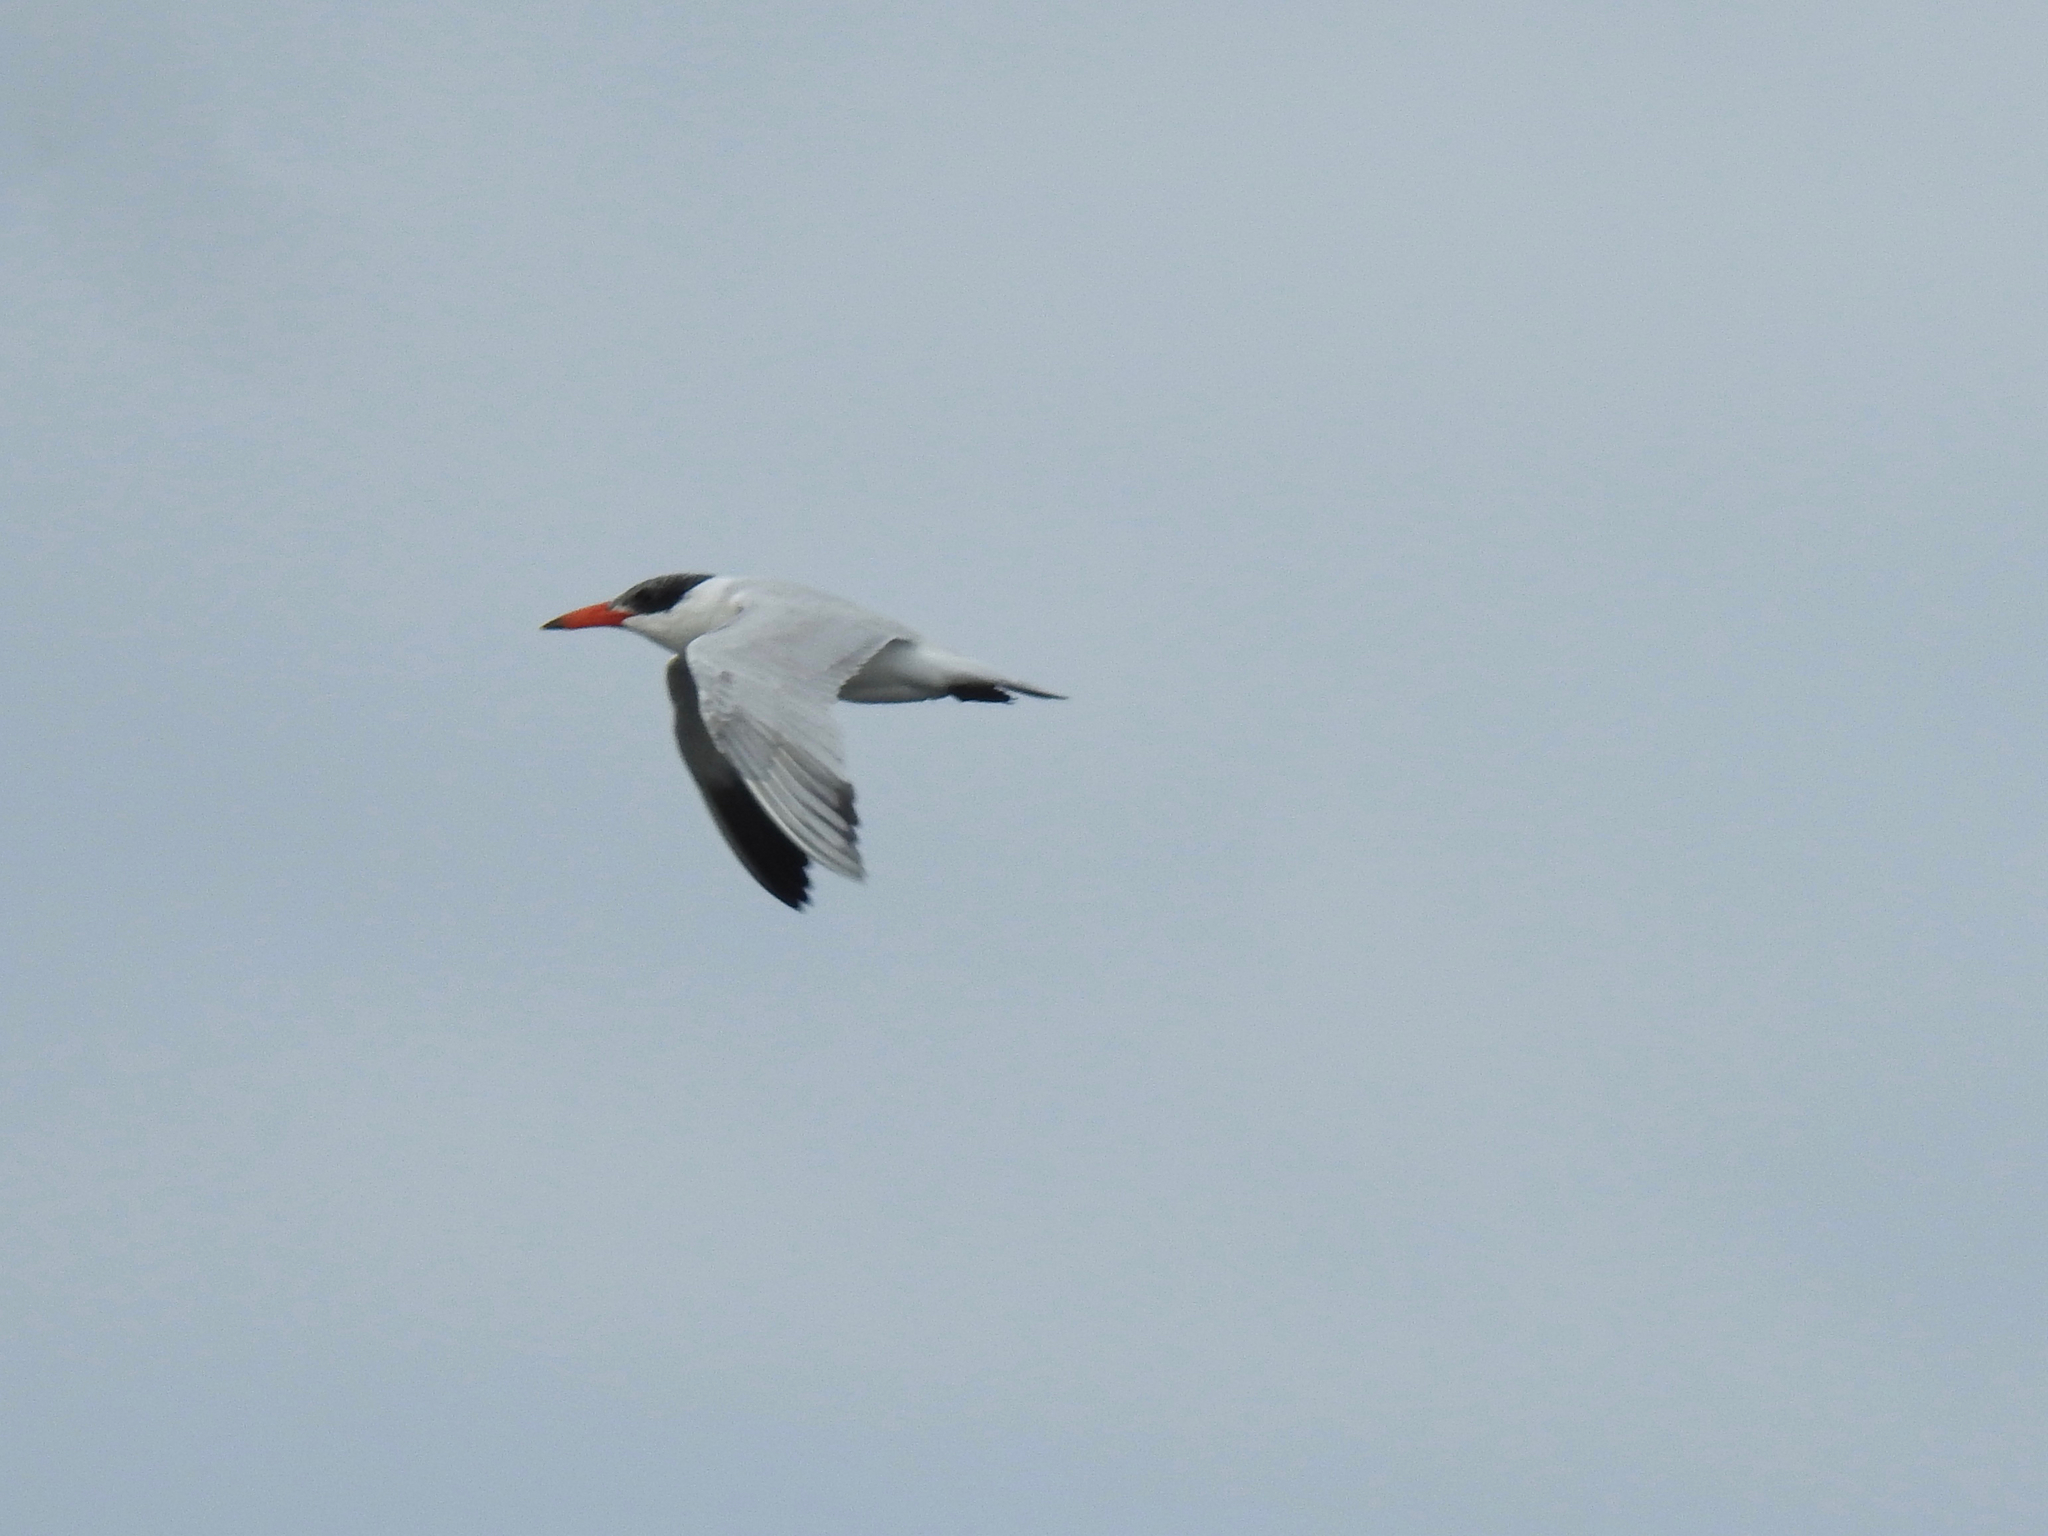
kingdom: Animalia
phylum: Chordata
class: Aves
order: Charadriiformes
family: Laridae
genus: Hydroprogne
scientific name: Hydroprogne caspia
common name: Caspian tern
